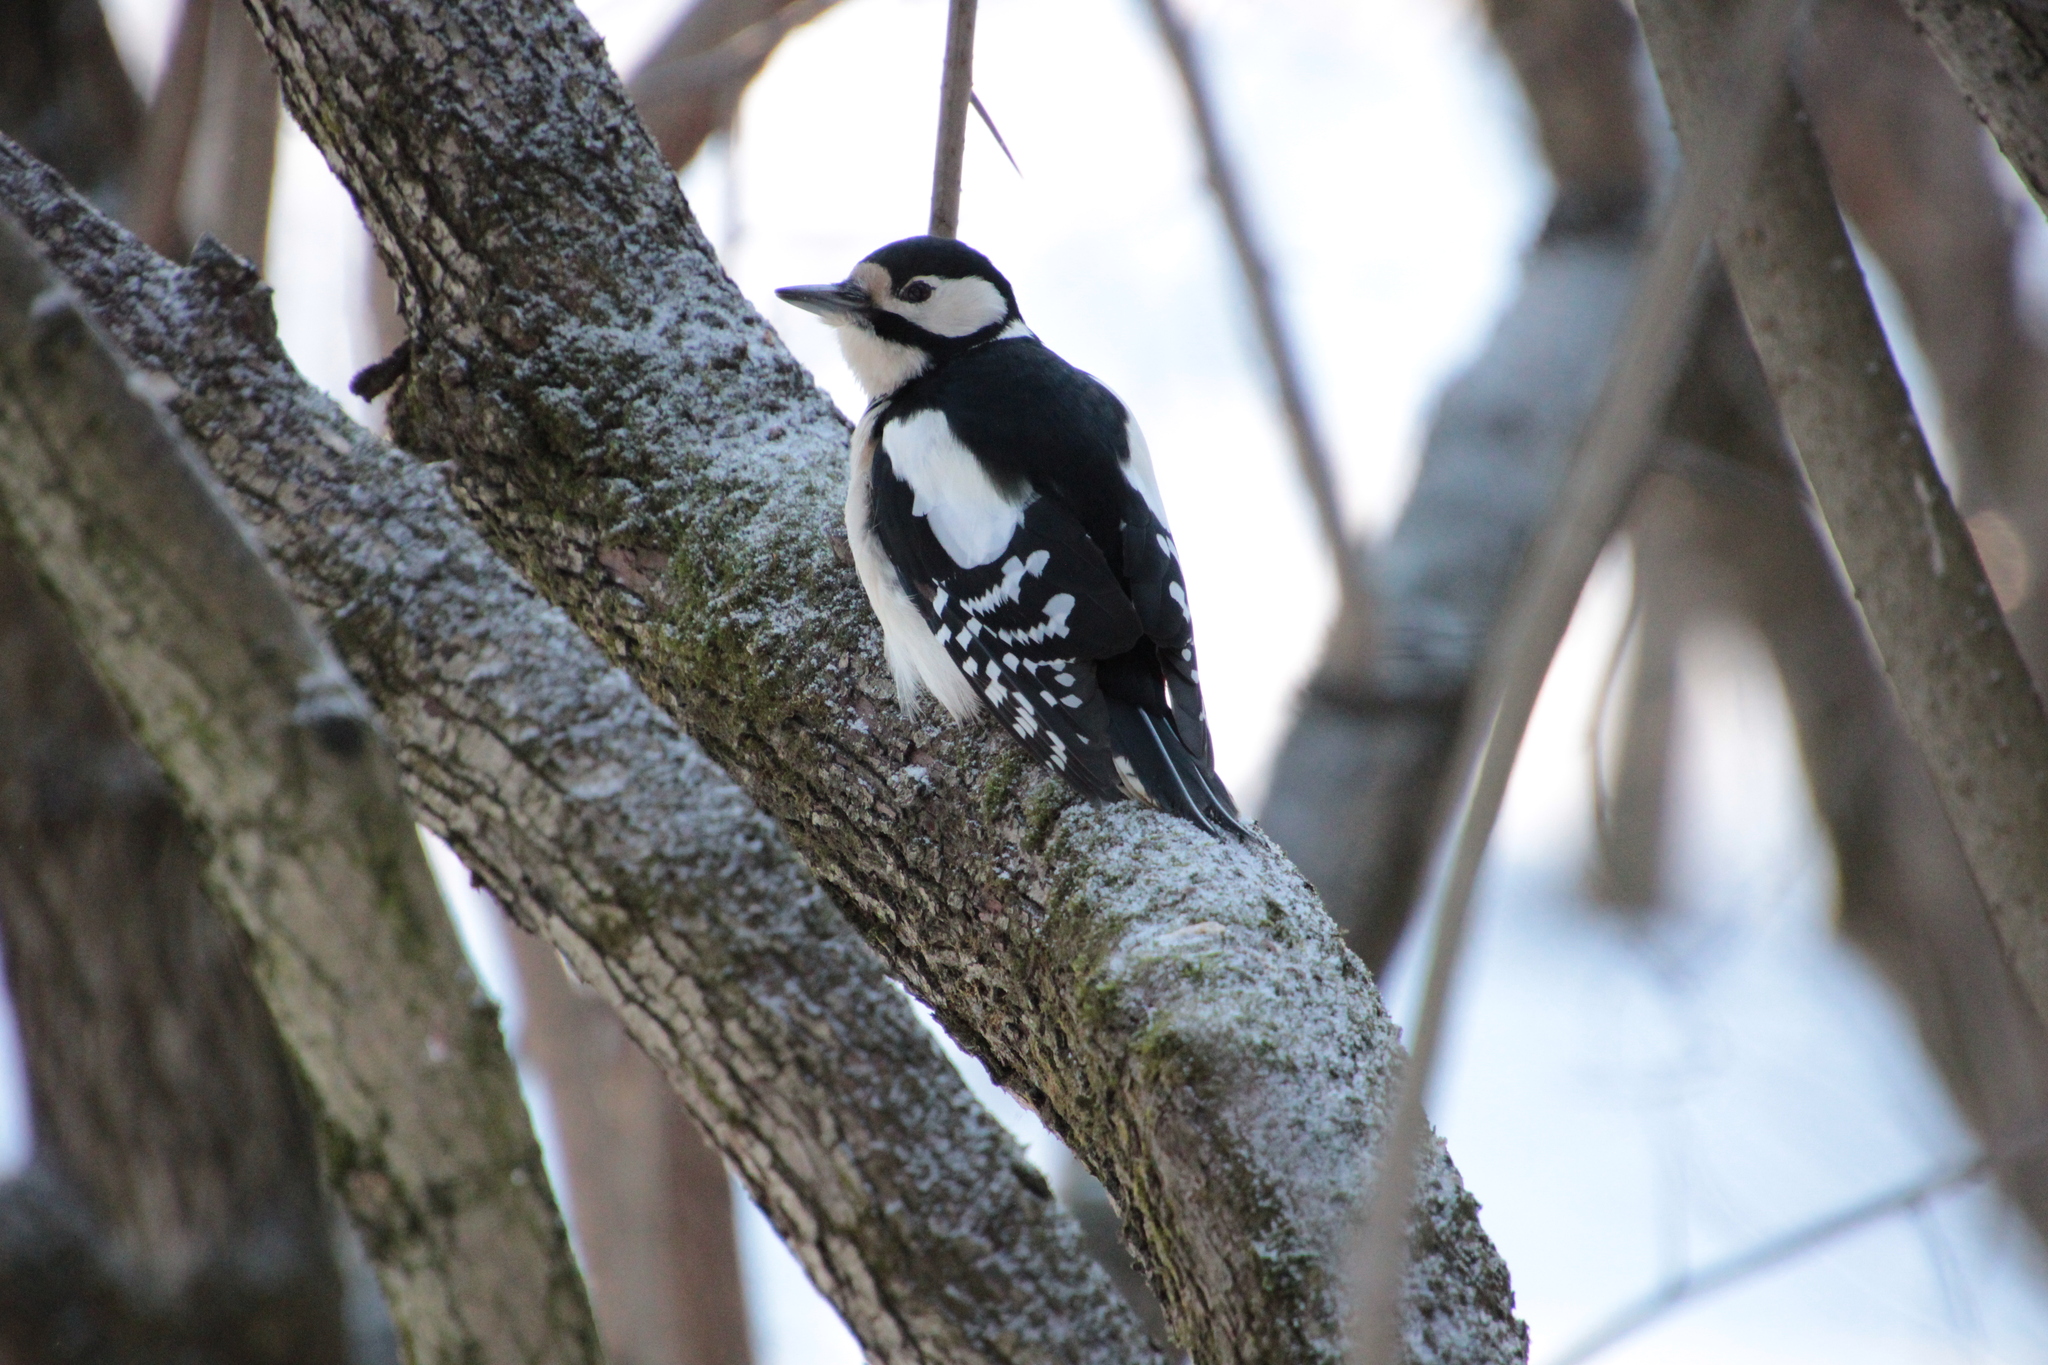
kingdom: Animalia
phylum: Chordata
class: Aves
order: Piciformes
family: Picidae
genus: Dendrocopos
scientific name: Dendrocopos major
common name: Great spotted woodpecker
